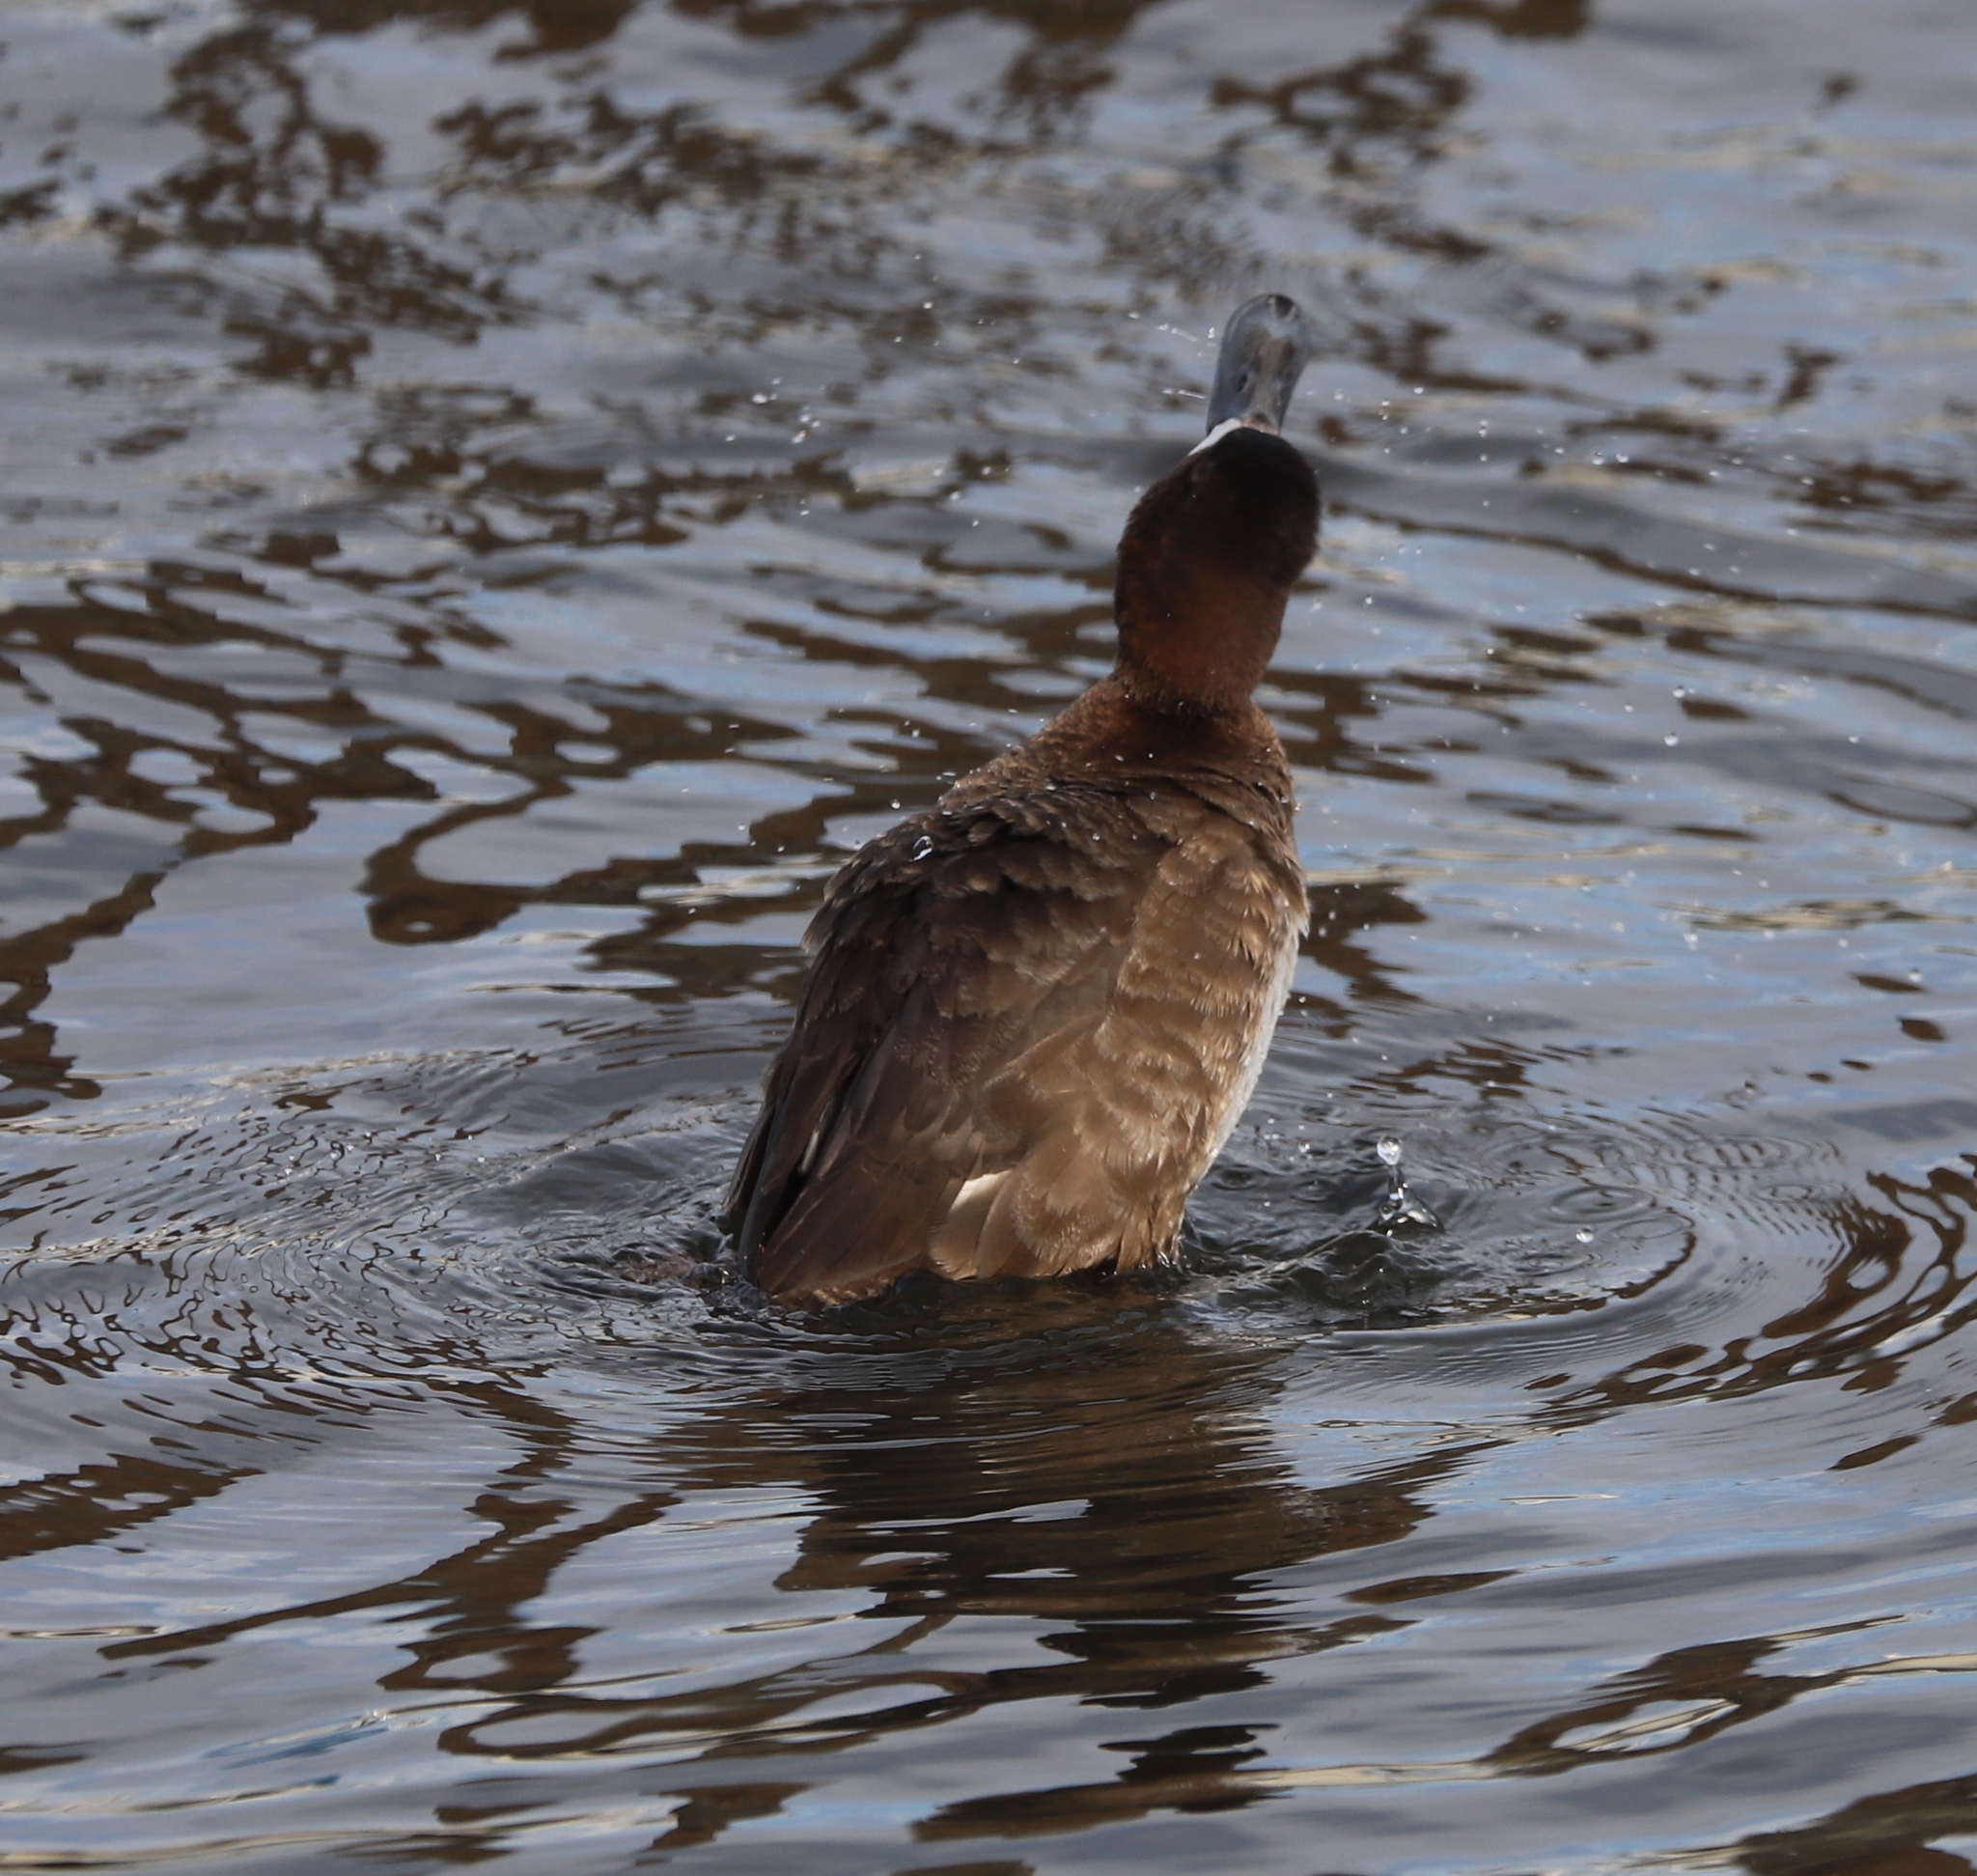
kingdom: Animalia
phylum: Chordata
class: Aves
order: Anseriformes
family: Anatidae
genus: Aythya
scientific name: Aythya affinis
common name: Lesser scaup
